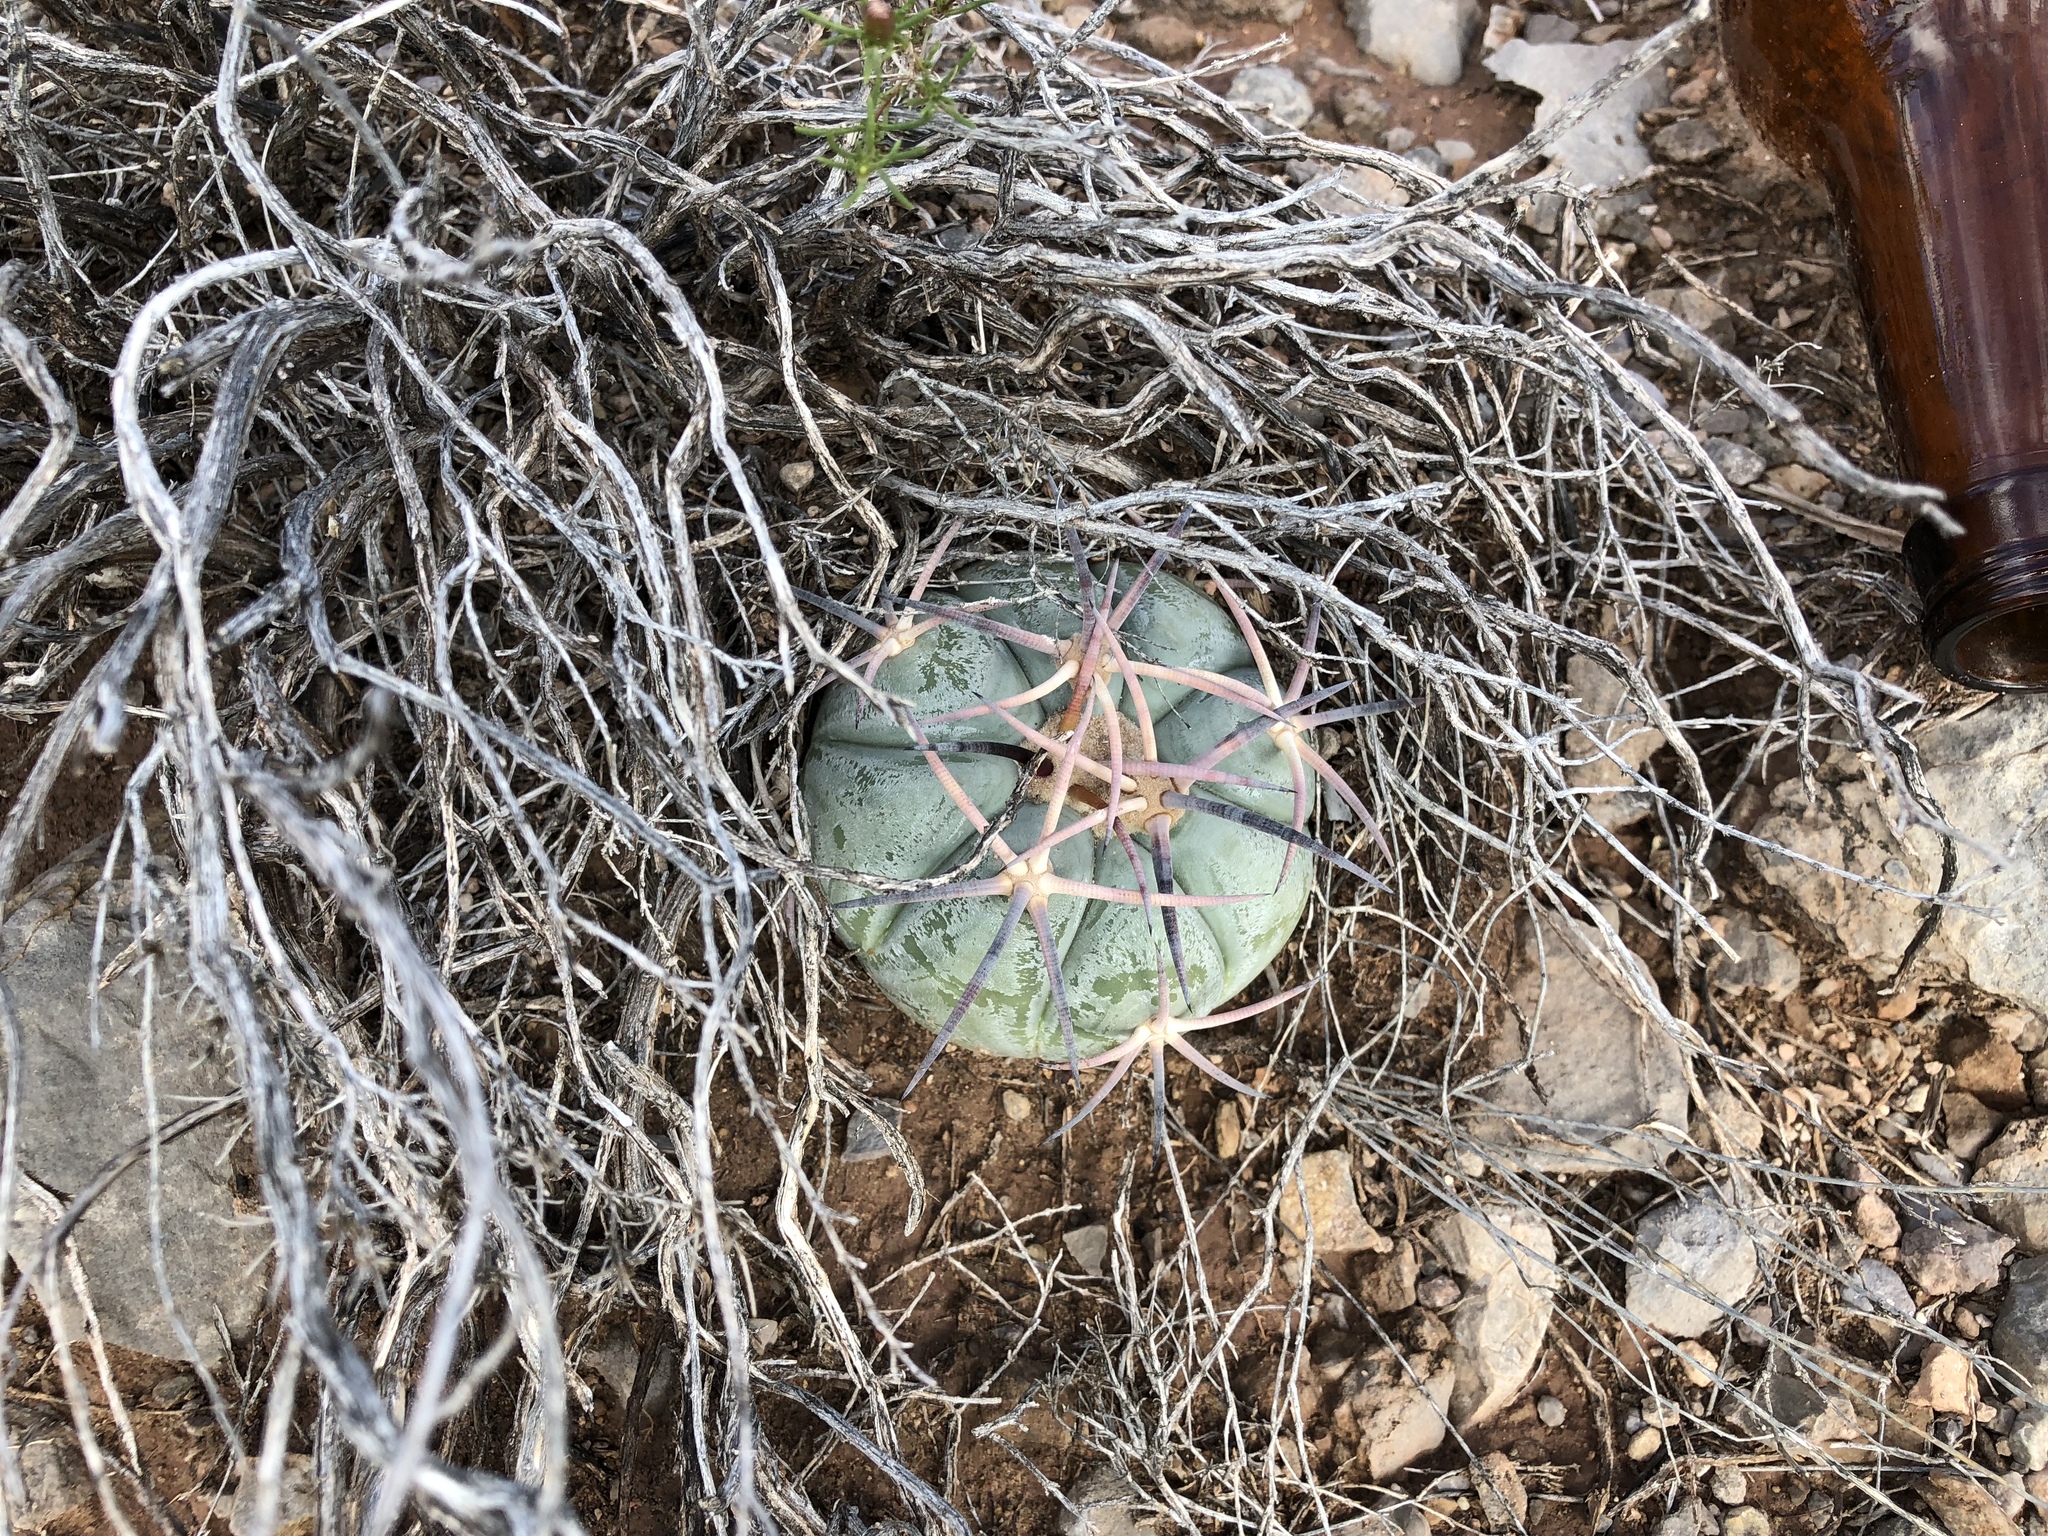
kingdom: Plantae
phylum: Tracheophyta
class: Magnoliopsida
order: Caryophyllales
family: Cactaceae
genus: Echinocactus
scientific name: Echinocactus horizonthalonius
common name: Devilshead
